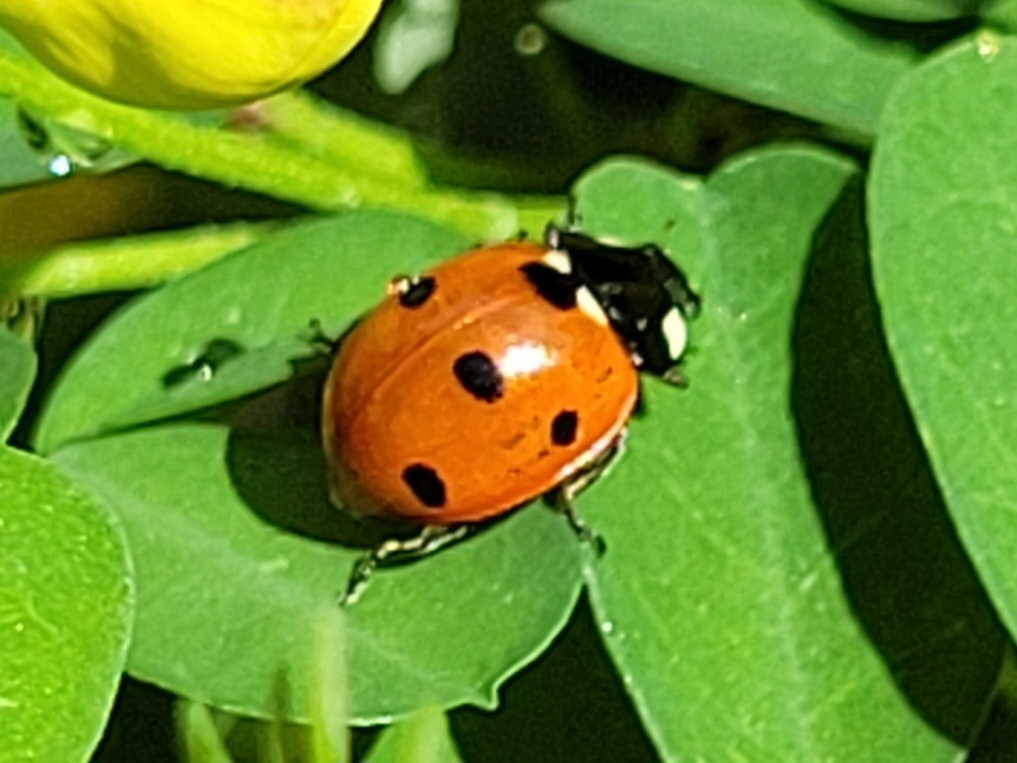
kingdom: Animalia
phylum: Arthropoda
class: Insecta
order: Coleoptera
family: Coccinellidae
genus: Coccinella
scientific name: Coccinella septempunctata
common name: Sevenspotted lady beetle
